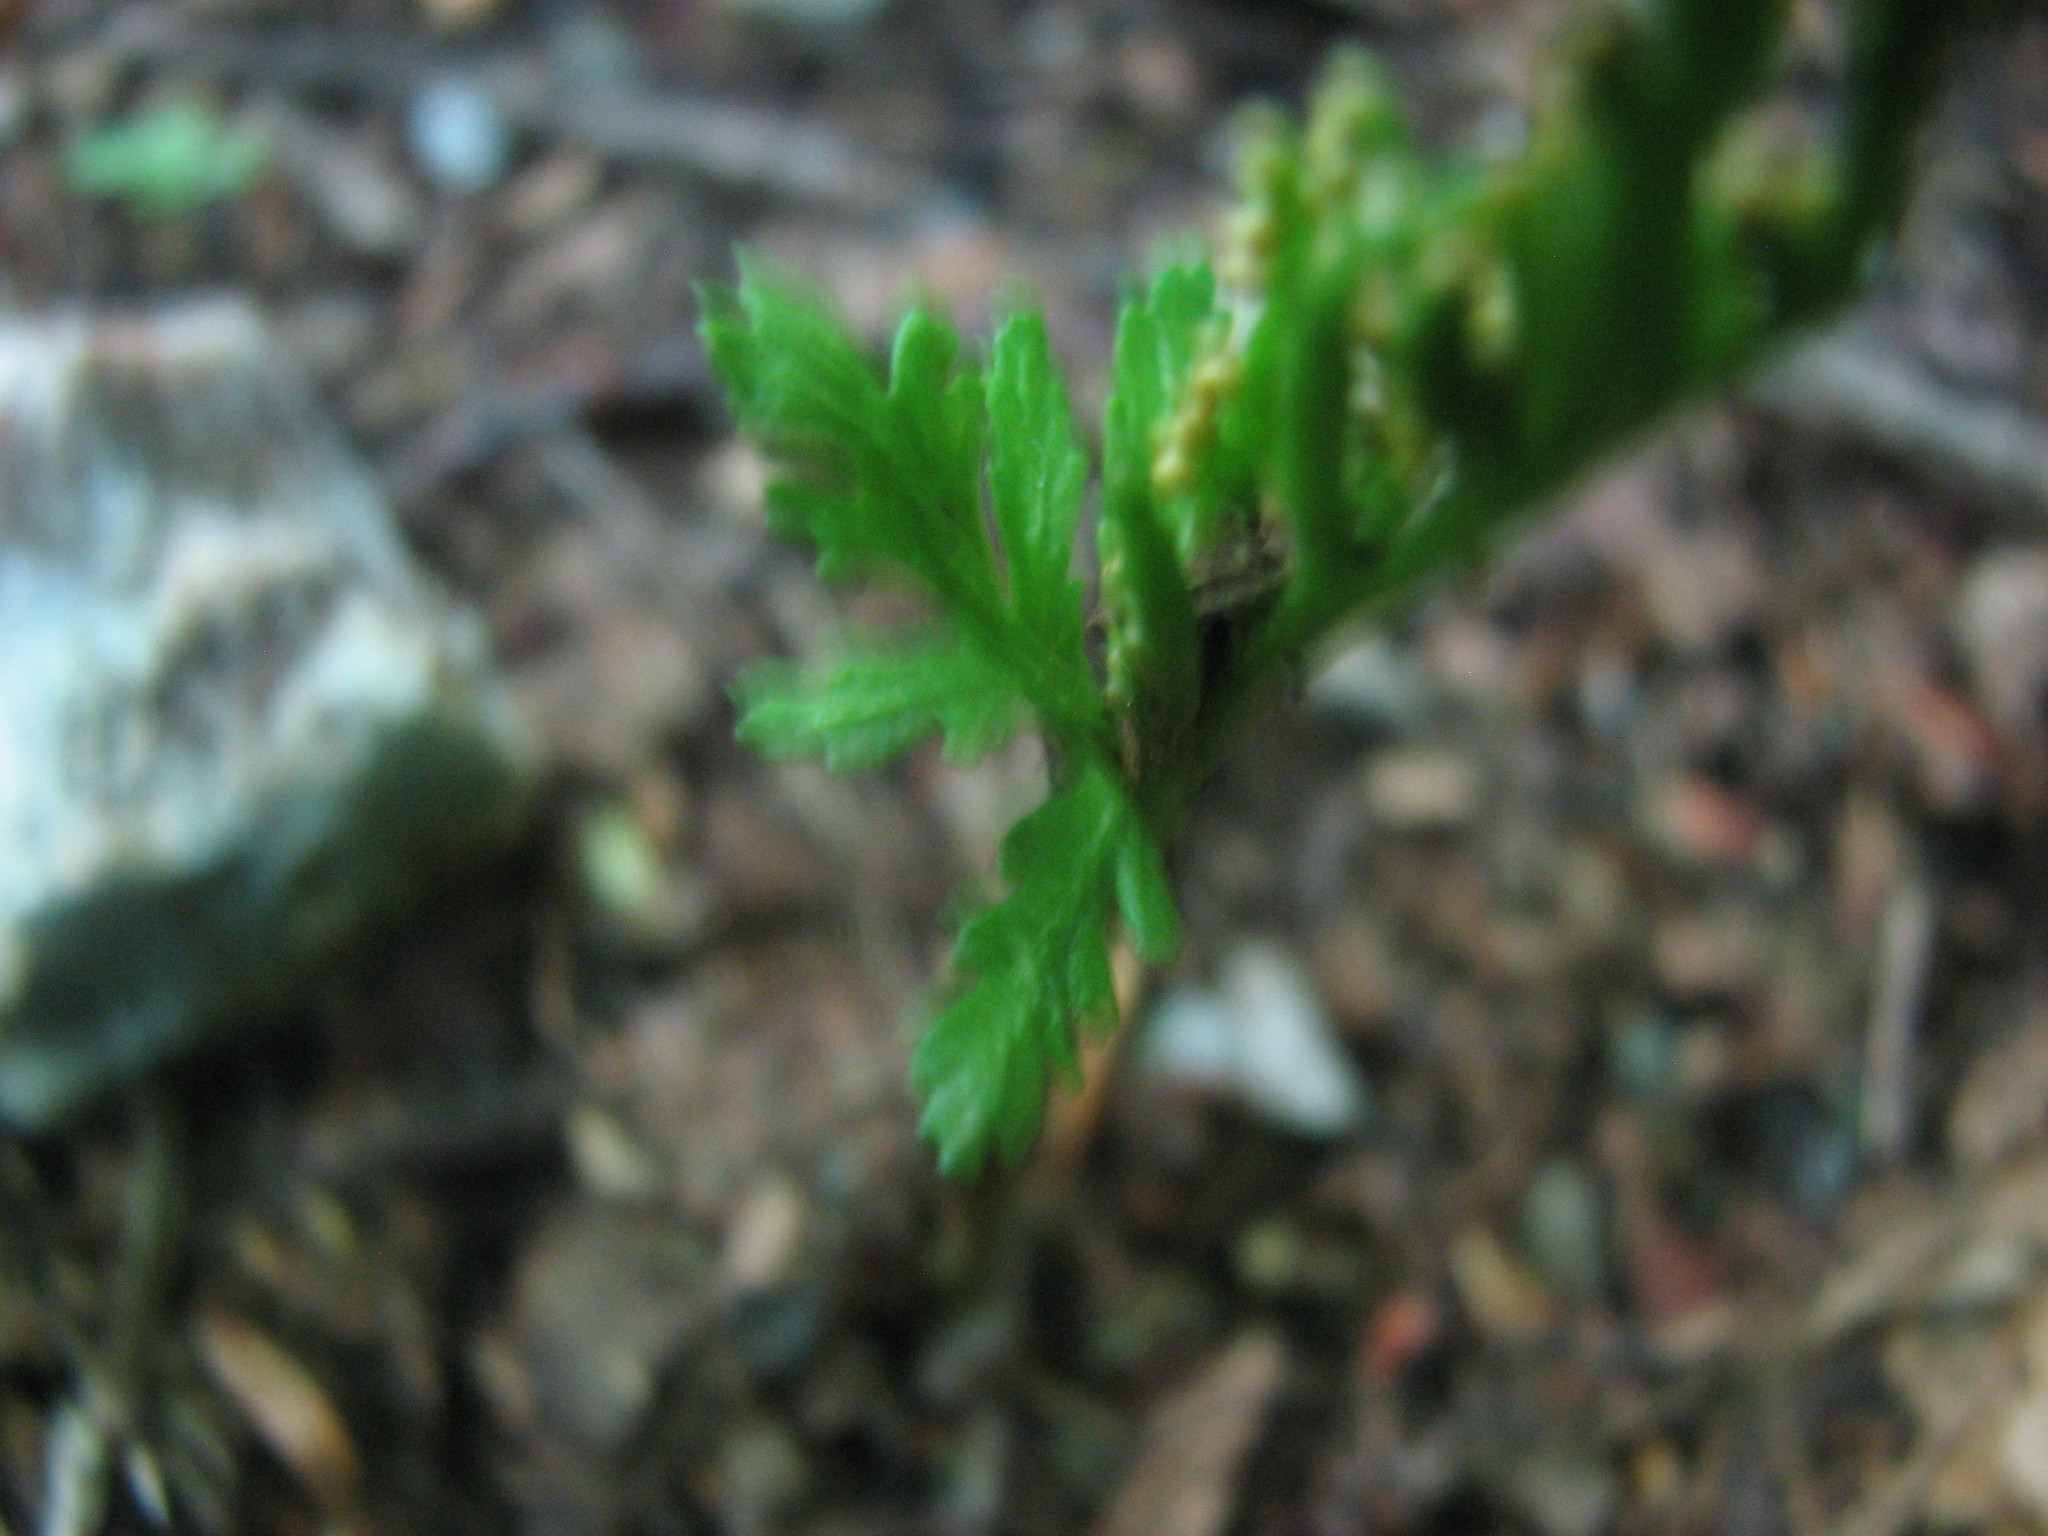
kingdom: Plantae
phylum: Tracheophyta
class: Polypodiopsida
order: Ophioglossales
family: Ophioglossaceae
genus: Botrychium
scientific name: Botrychium angustisegmentum
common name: Narrow triangle moonwort
